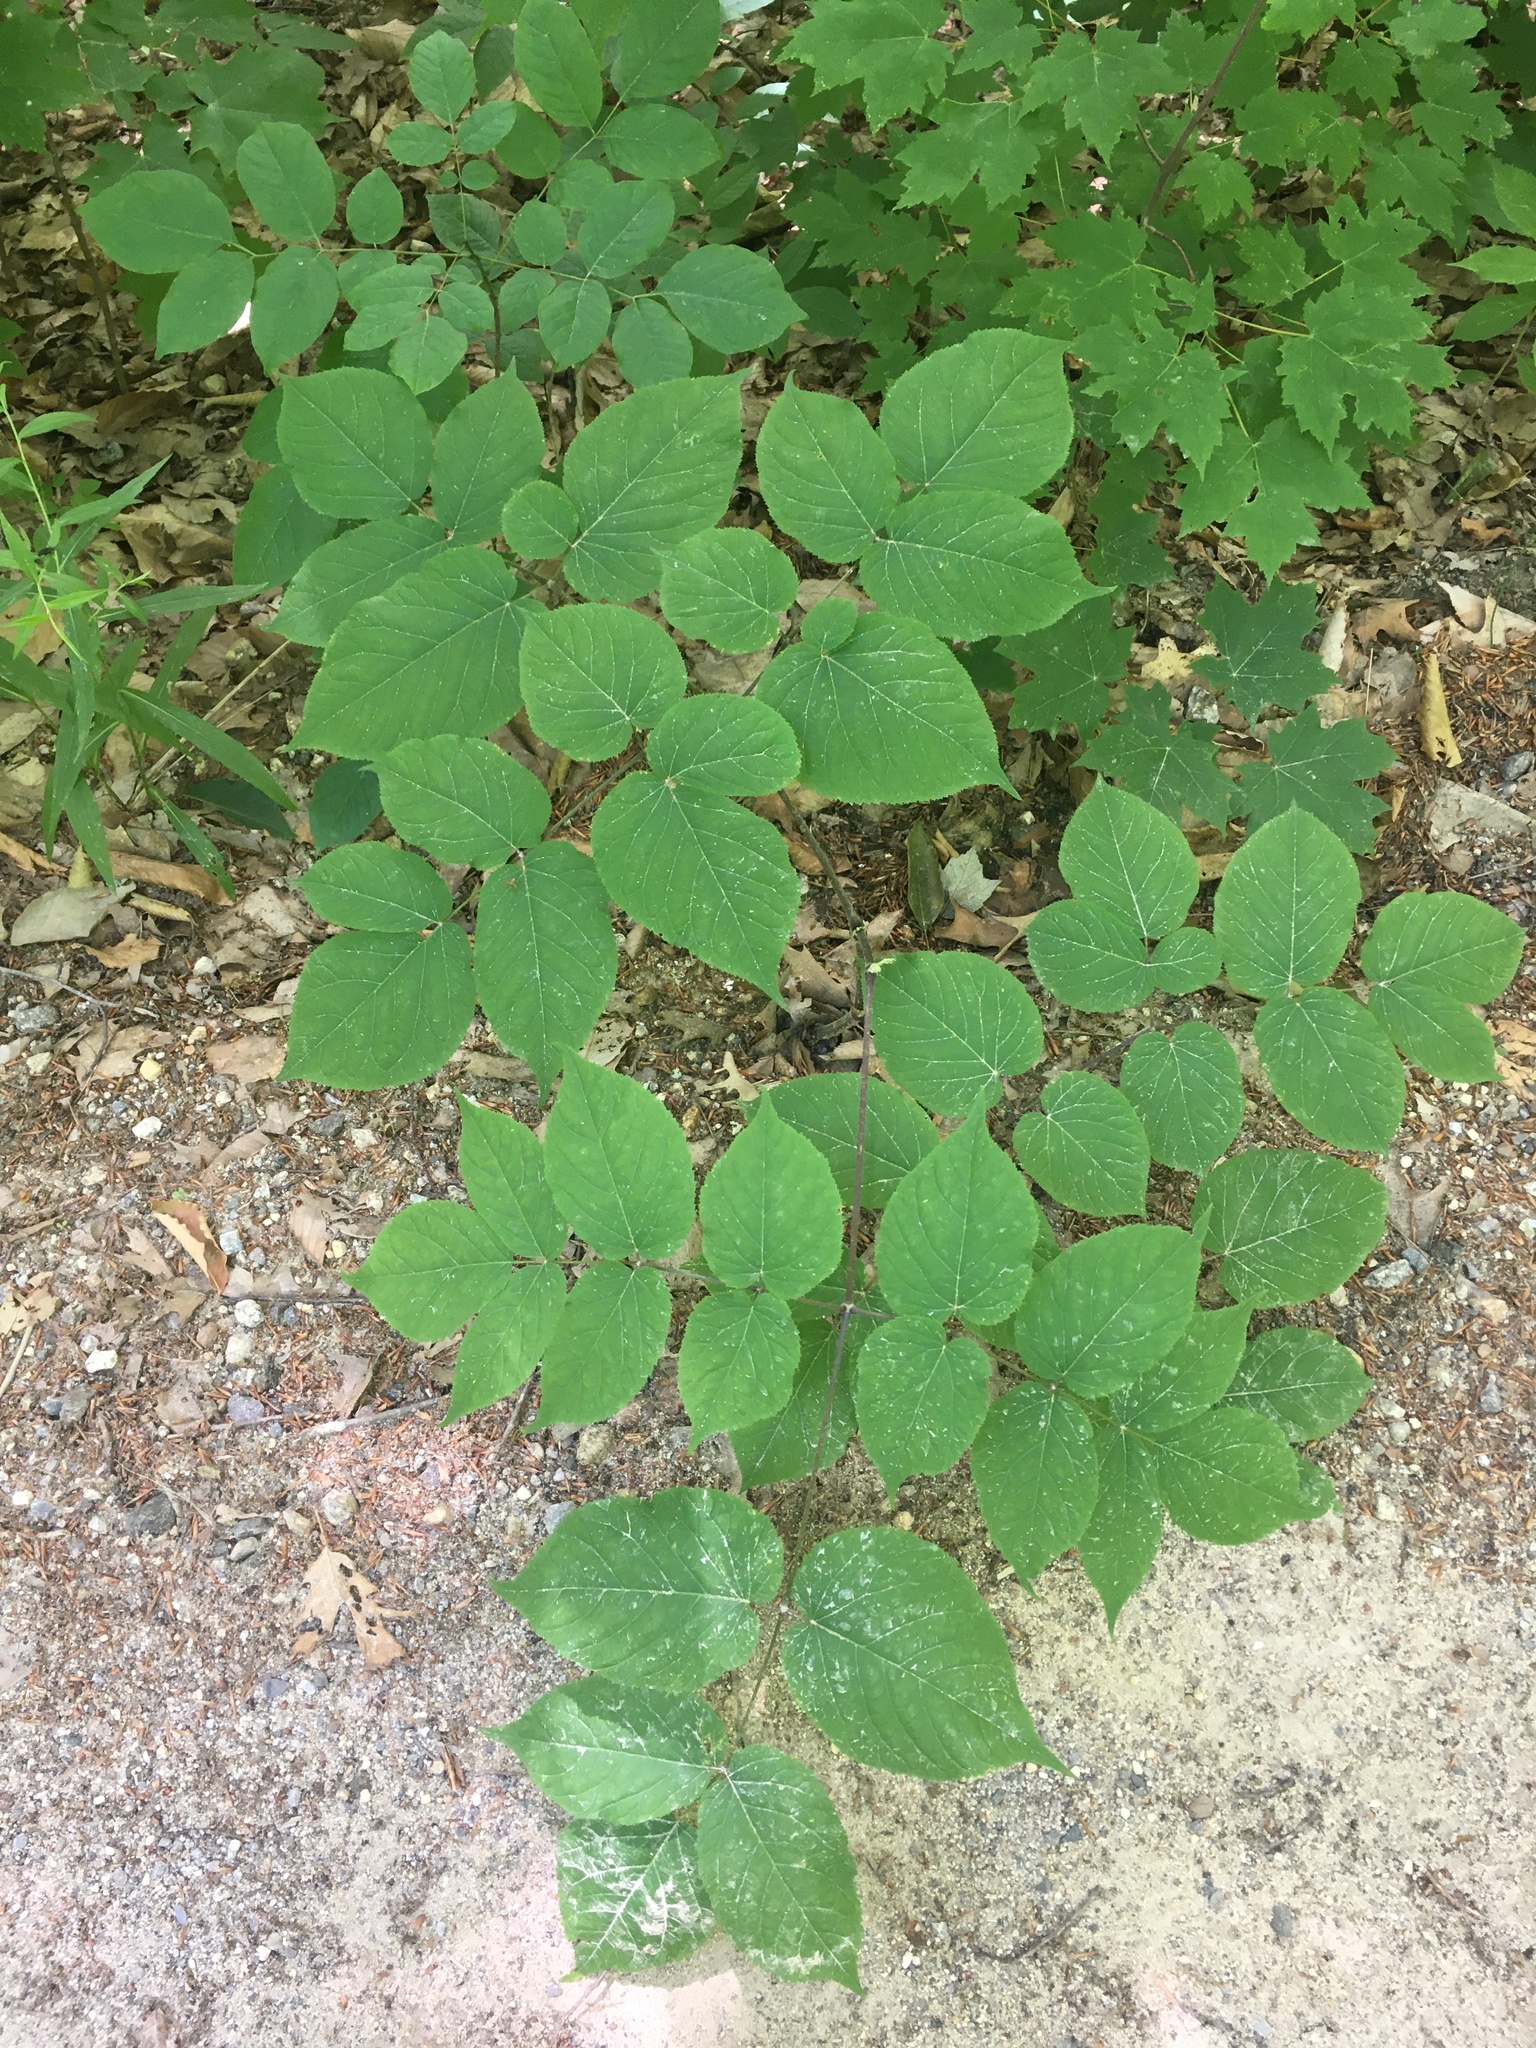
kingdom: Plantae
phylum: Tracheophyta
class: Magnoliopsida
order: Apiales
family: Araliaceae
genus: Aralia
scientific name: Aralia racemosa
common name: American-spikenard
